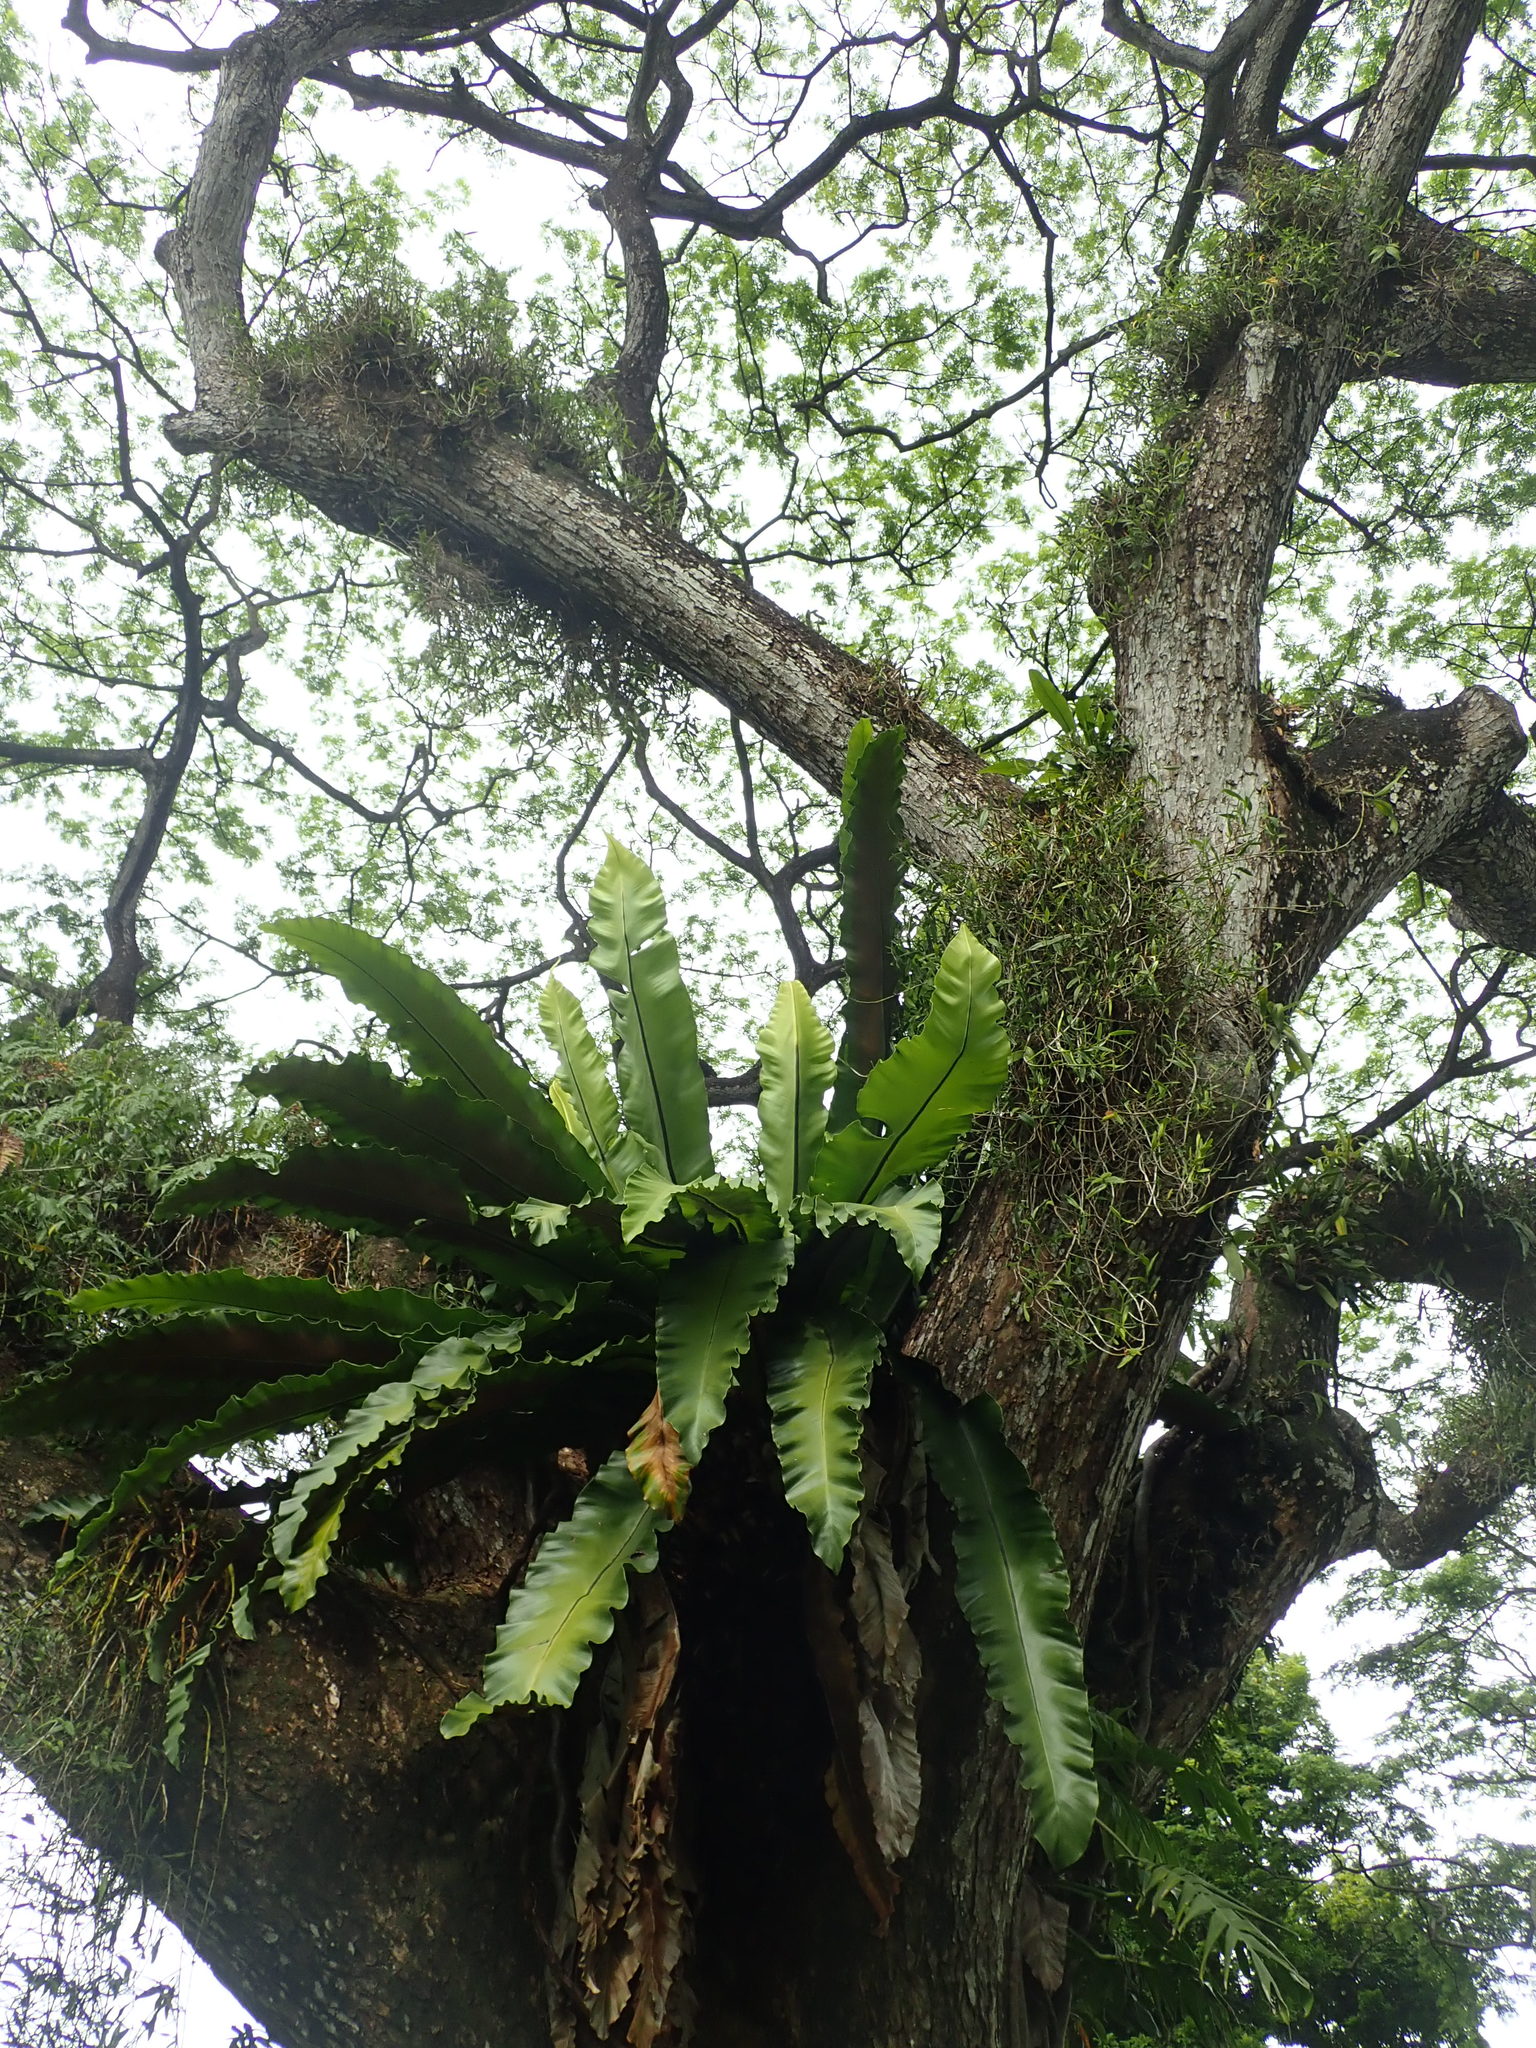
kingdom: Plantae
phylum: Tracheophyta
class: Polypodiopsida
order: Polypodiales
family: Aspleniaceae
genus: Asplenium
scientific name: Asplenium nidus
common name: Bird's-nest fern
